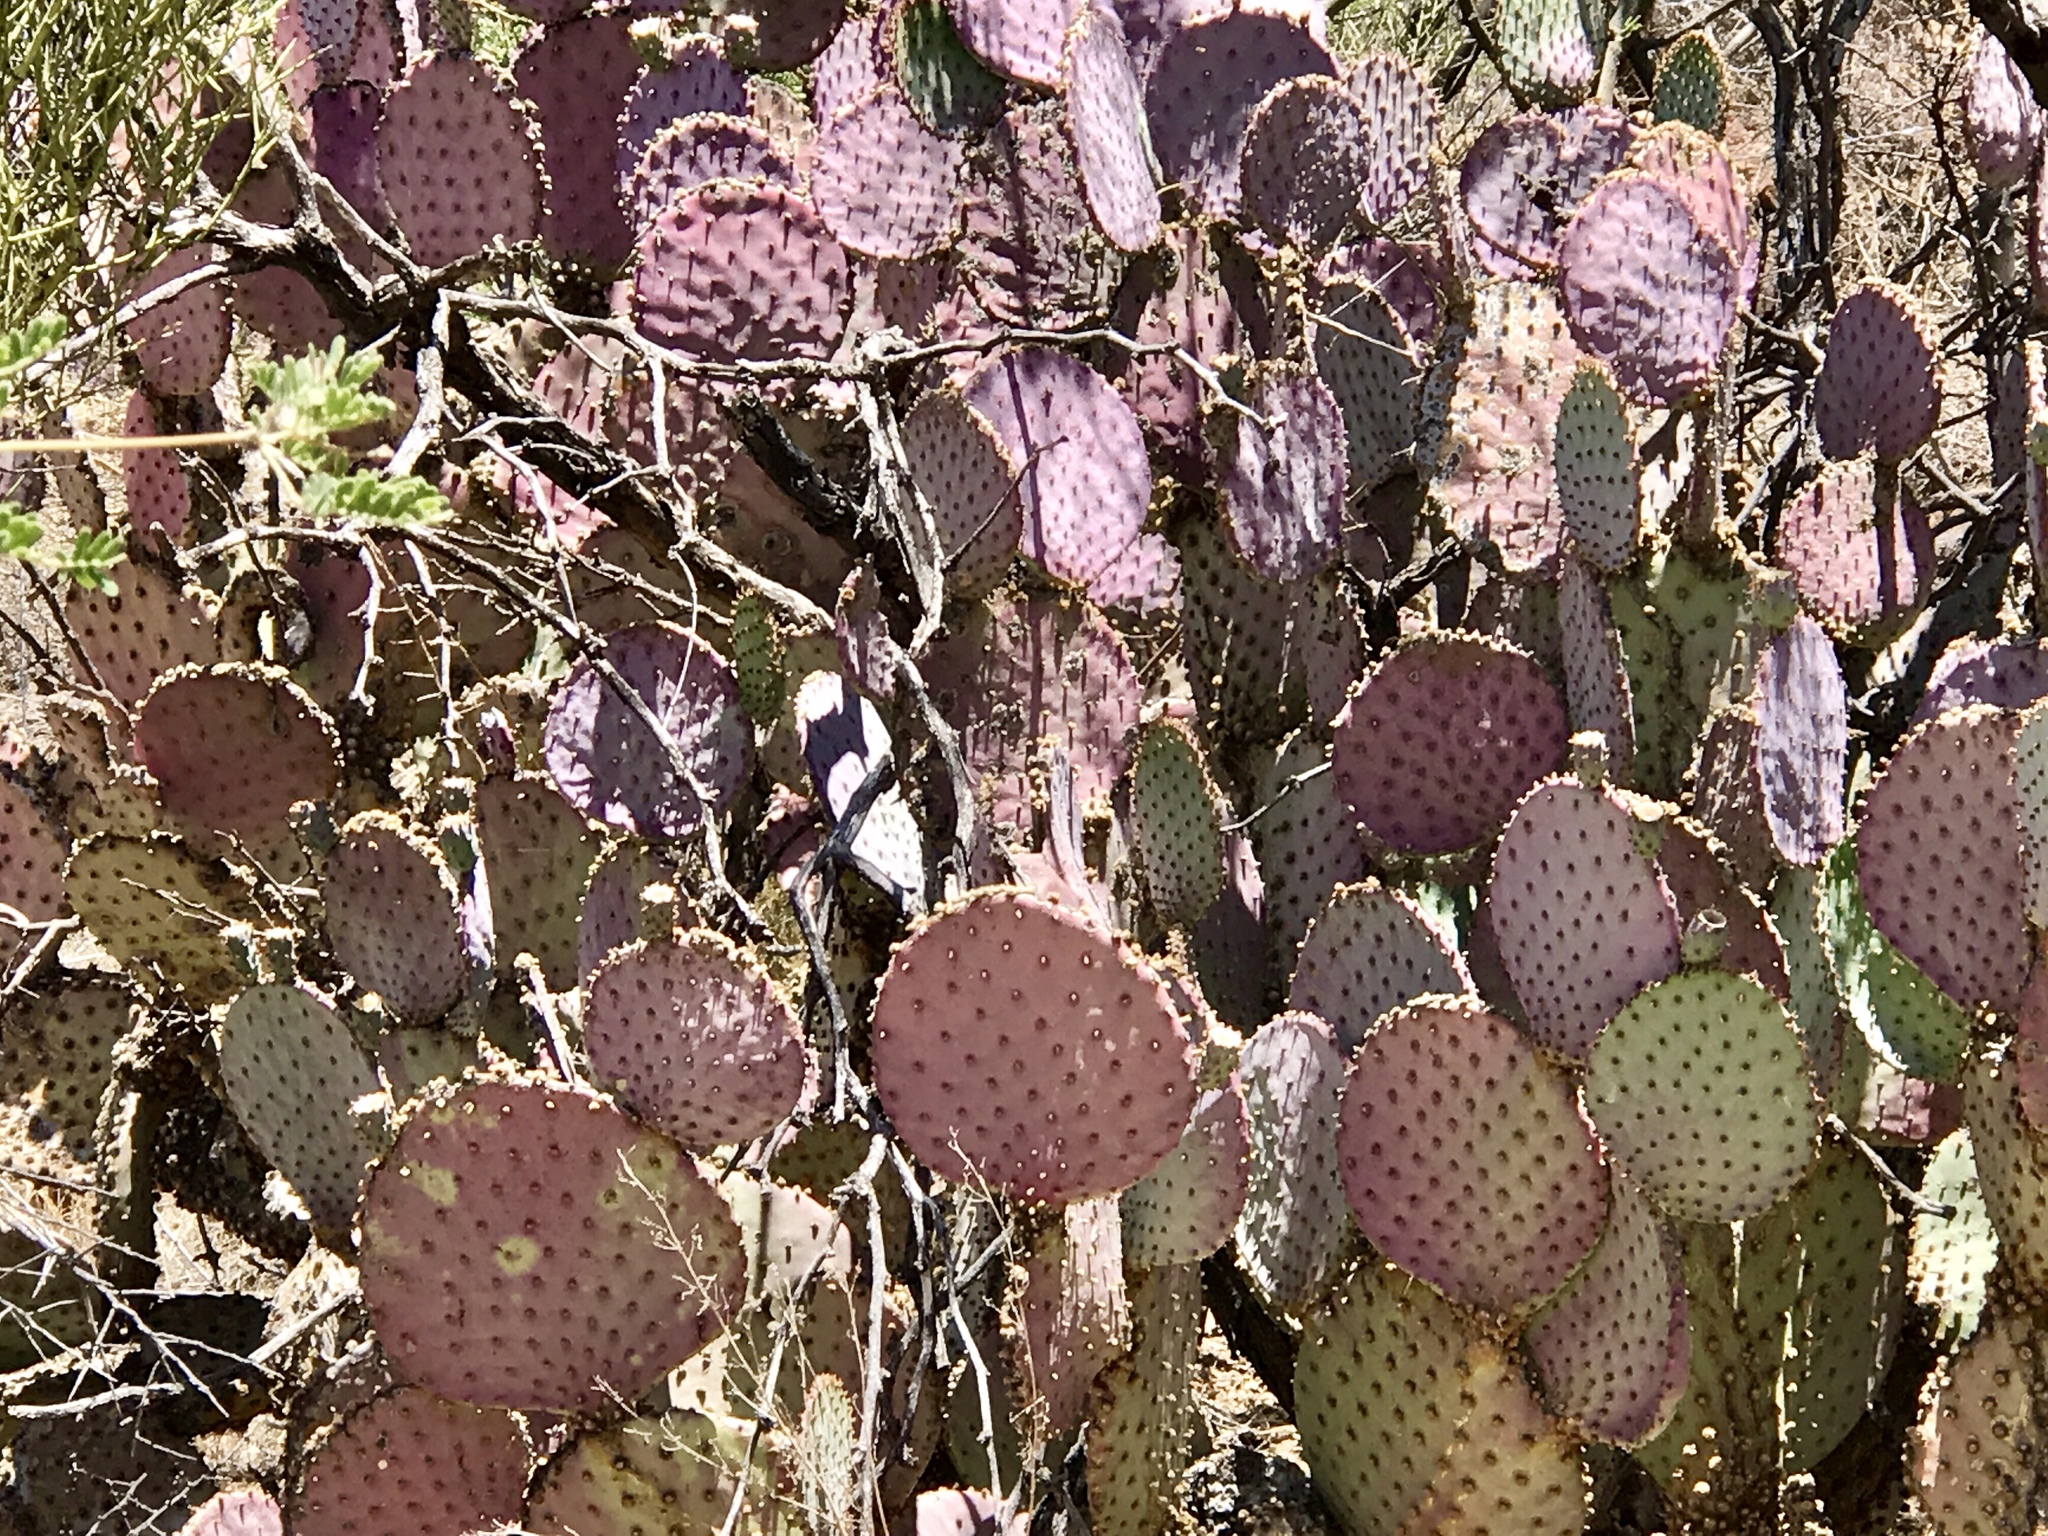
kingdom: Plantae
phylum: Tracheophyta
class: Magnoliopsida
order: Caryophyllales
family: Cactaceae
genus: Opuntia
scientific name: Opuntia gosseliniana
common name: Violet prickly-pear
